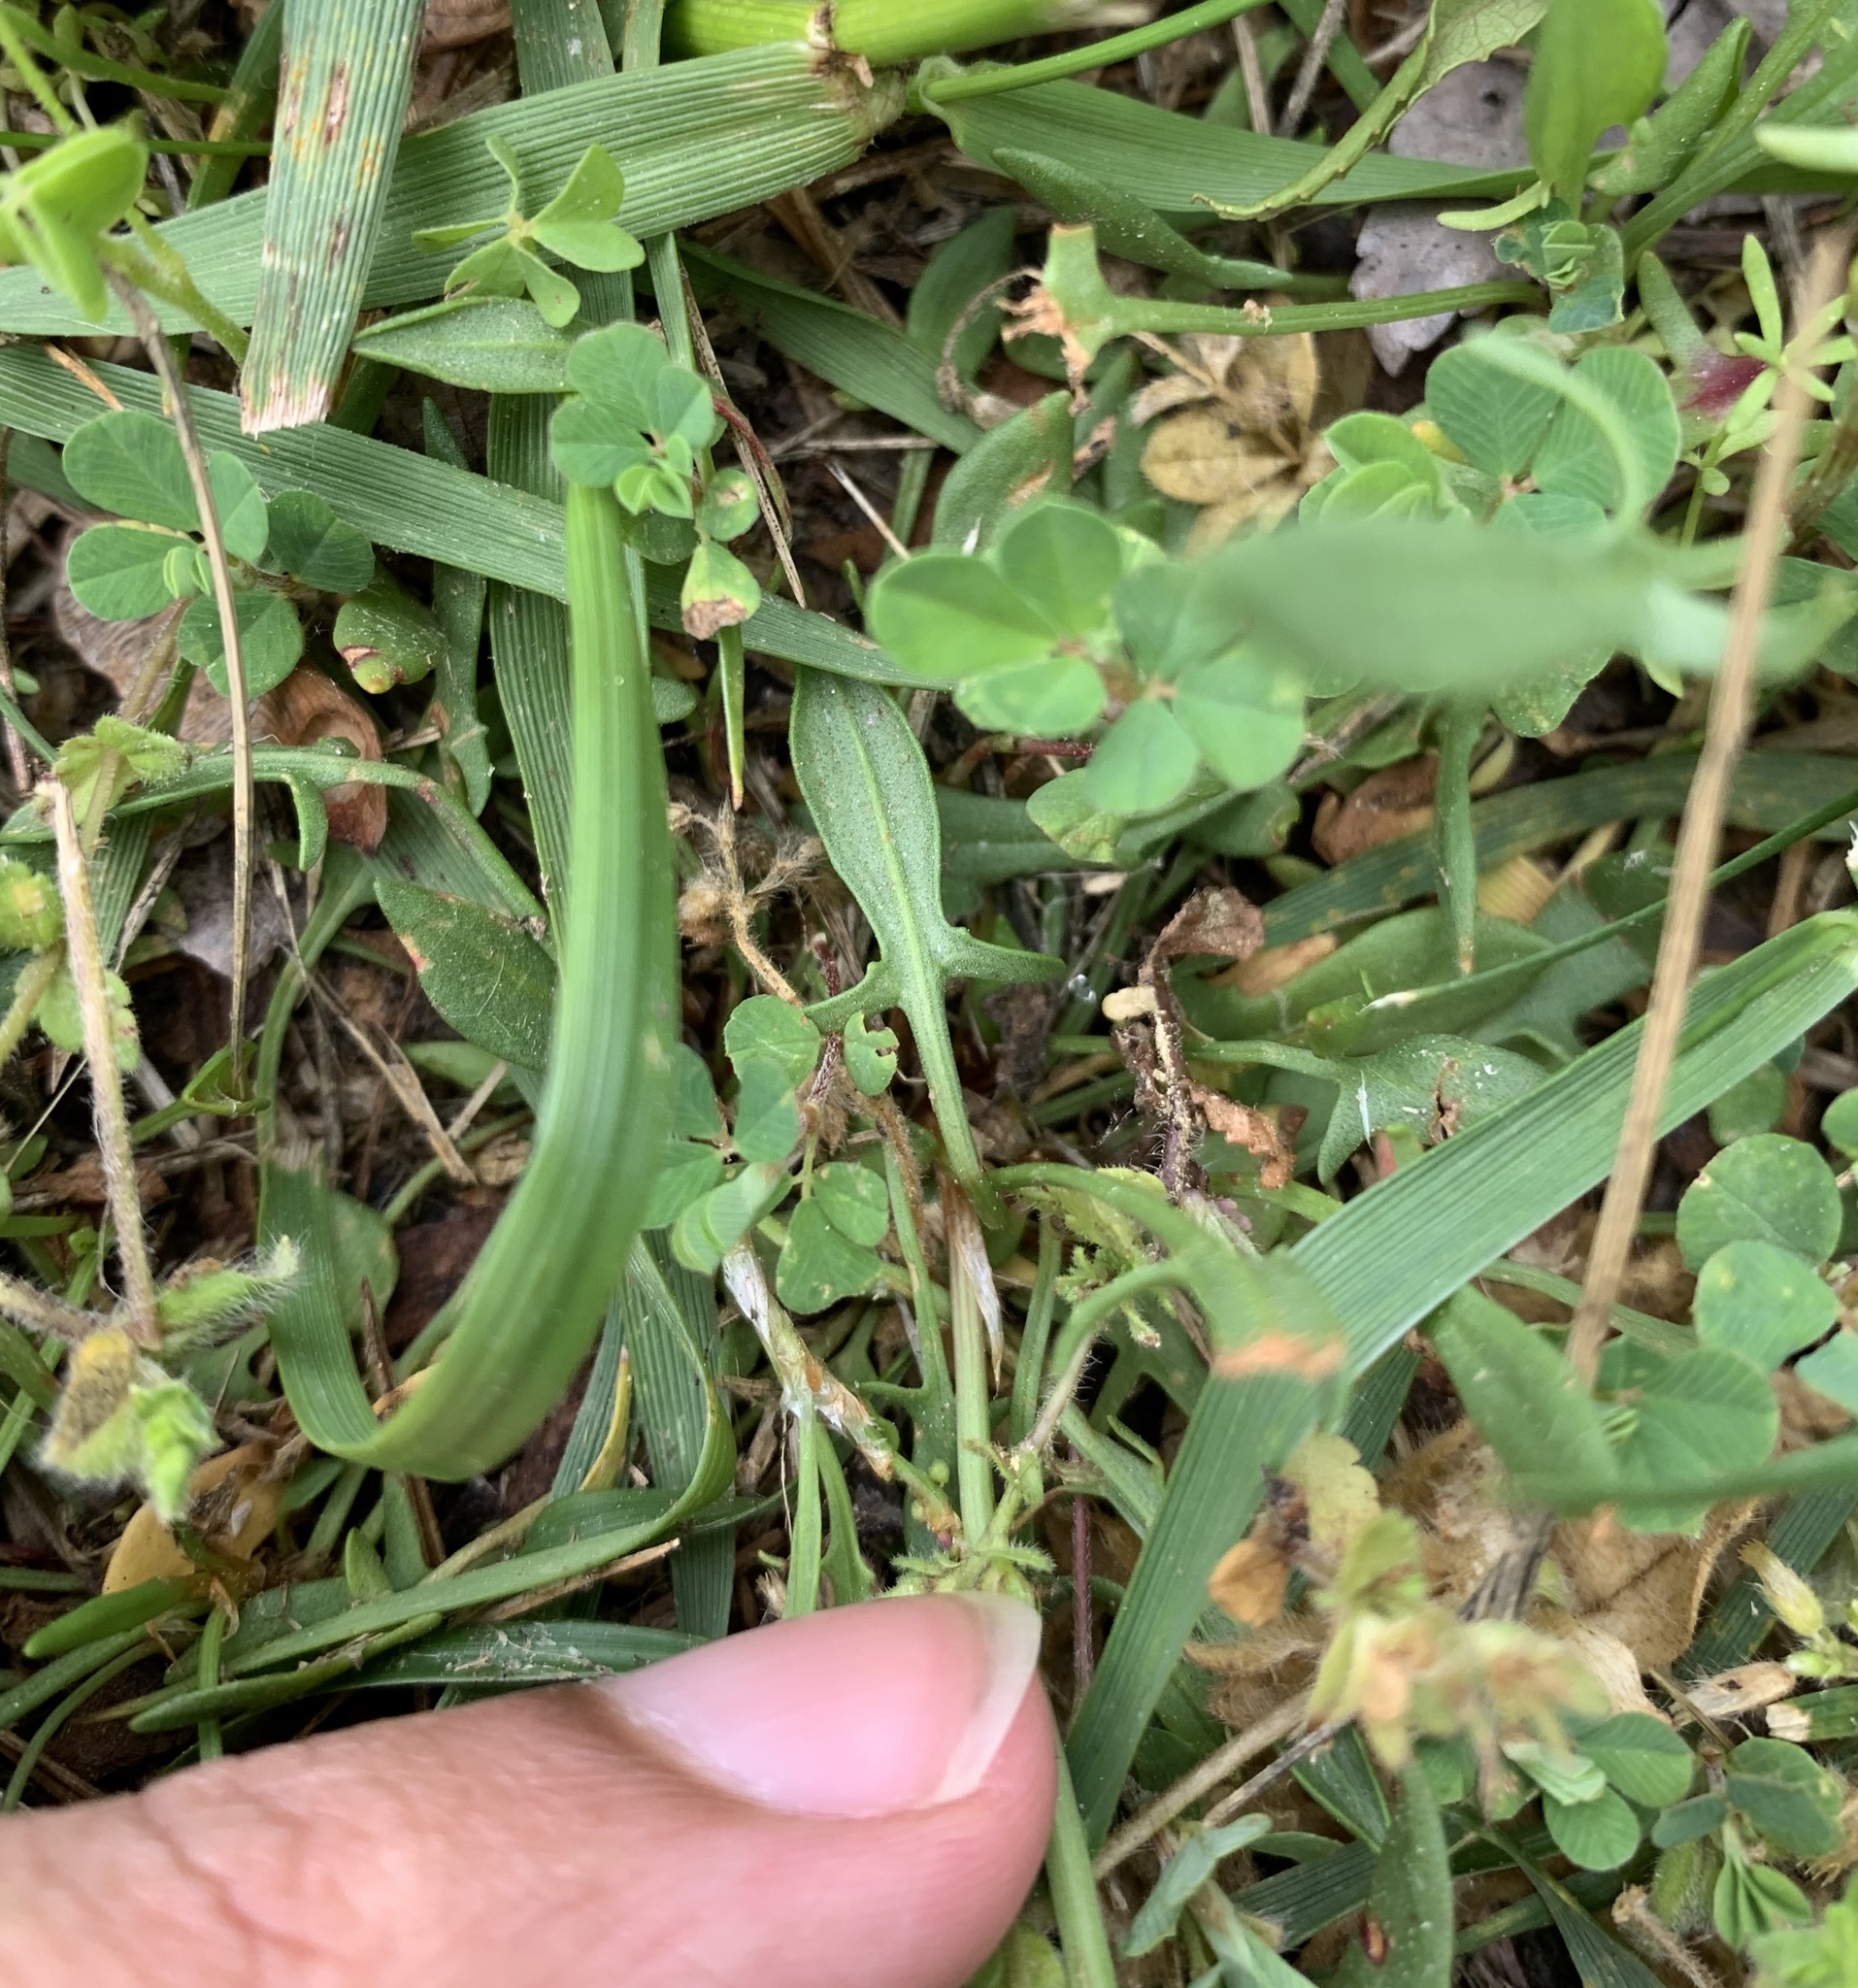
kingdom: Plantae
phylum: Tracheophyta
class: Magnoliopsida
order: Caryophyllales
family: Polygonaceae
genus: Rumex
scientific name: Rumex acetosella
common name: Common sheep sorrel
